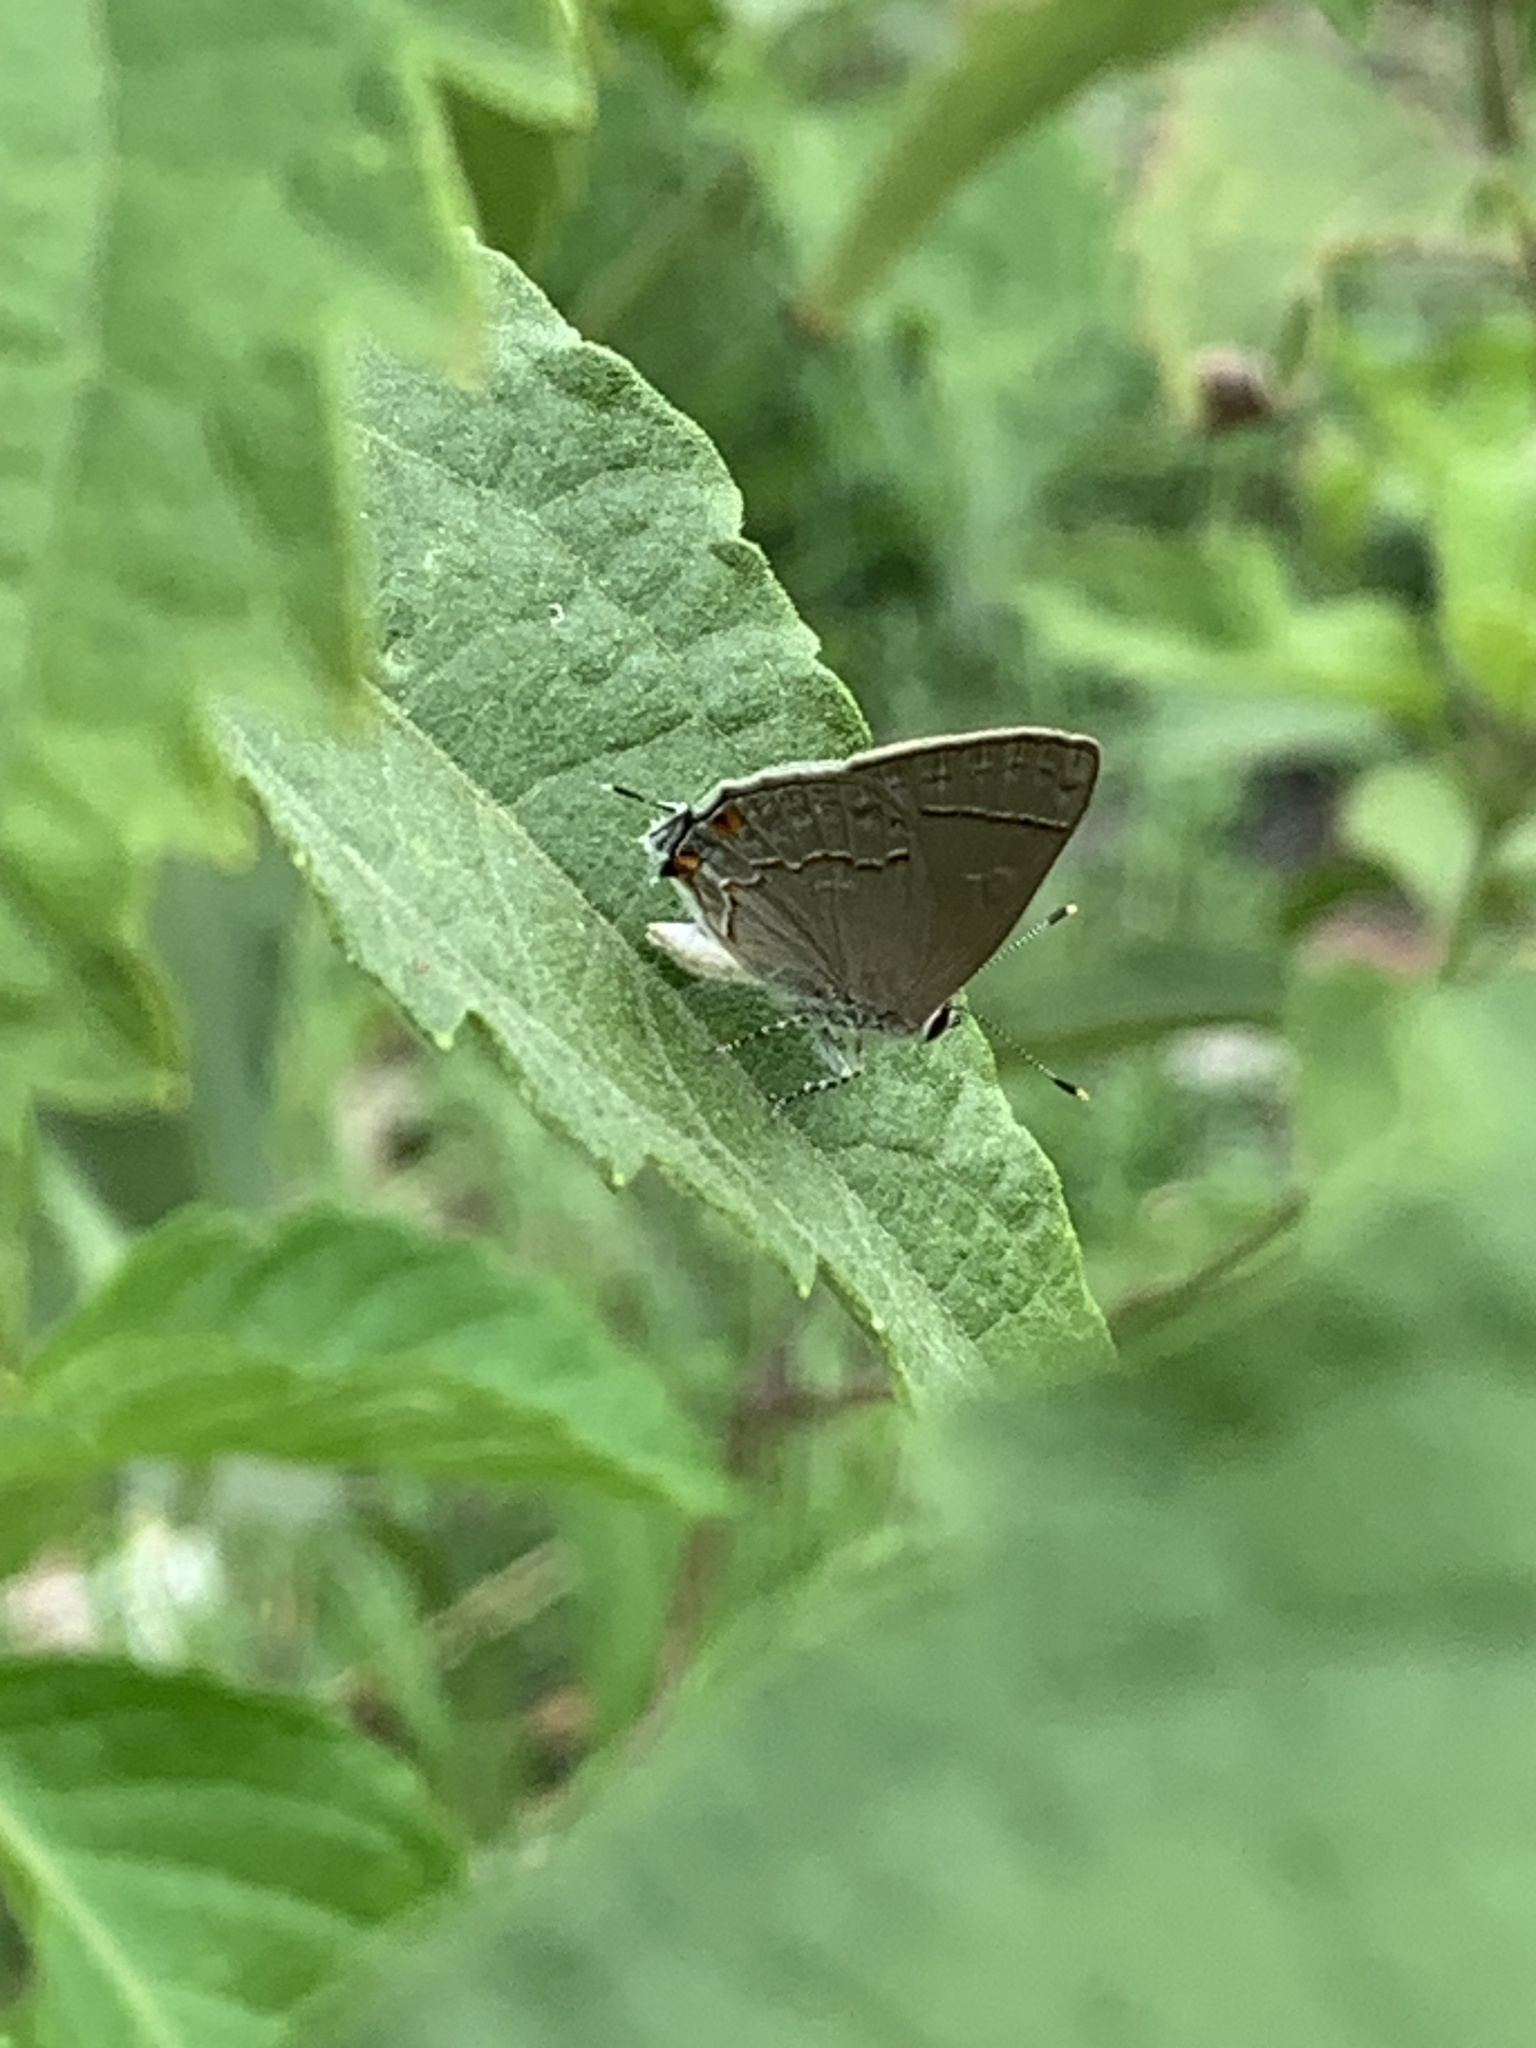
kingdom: Animalia
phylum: Arthropoda
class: Insecta
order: Lepidoptera
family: Lycaenidae
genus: Thecla
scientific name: Thecla gnosia
